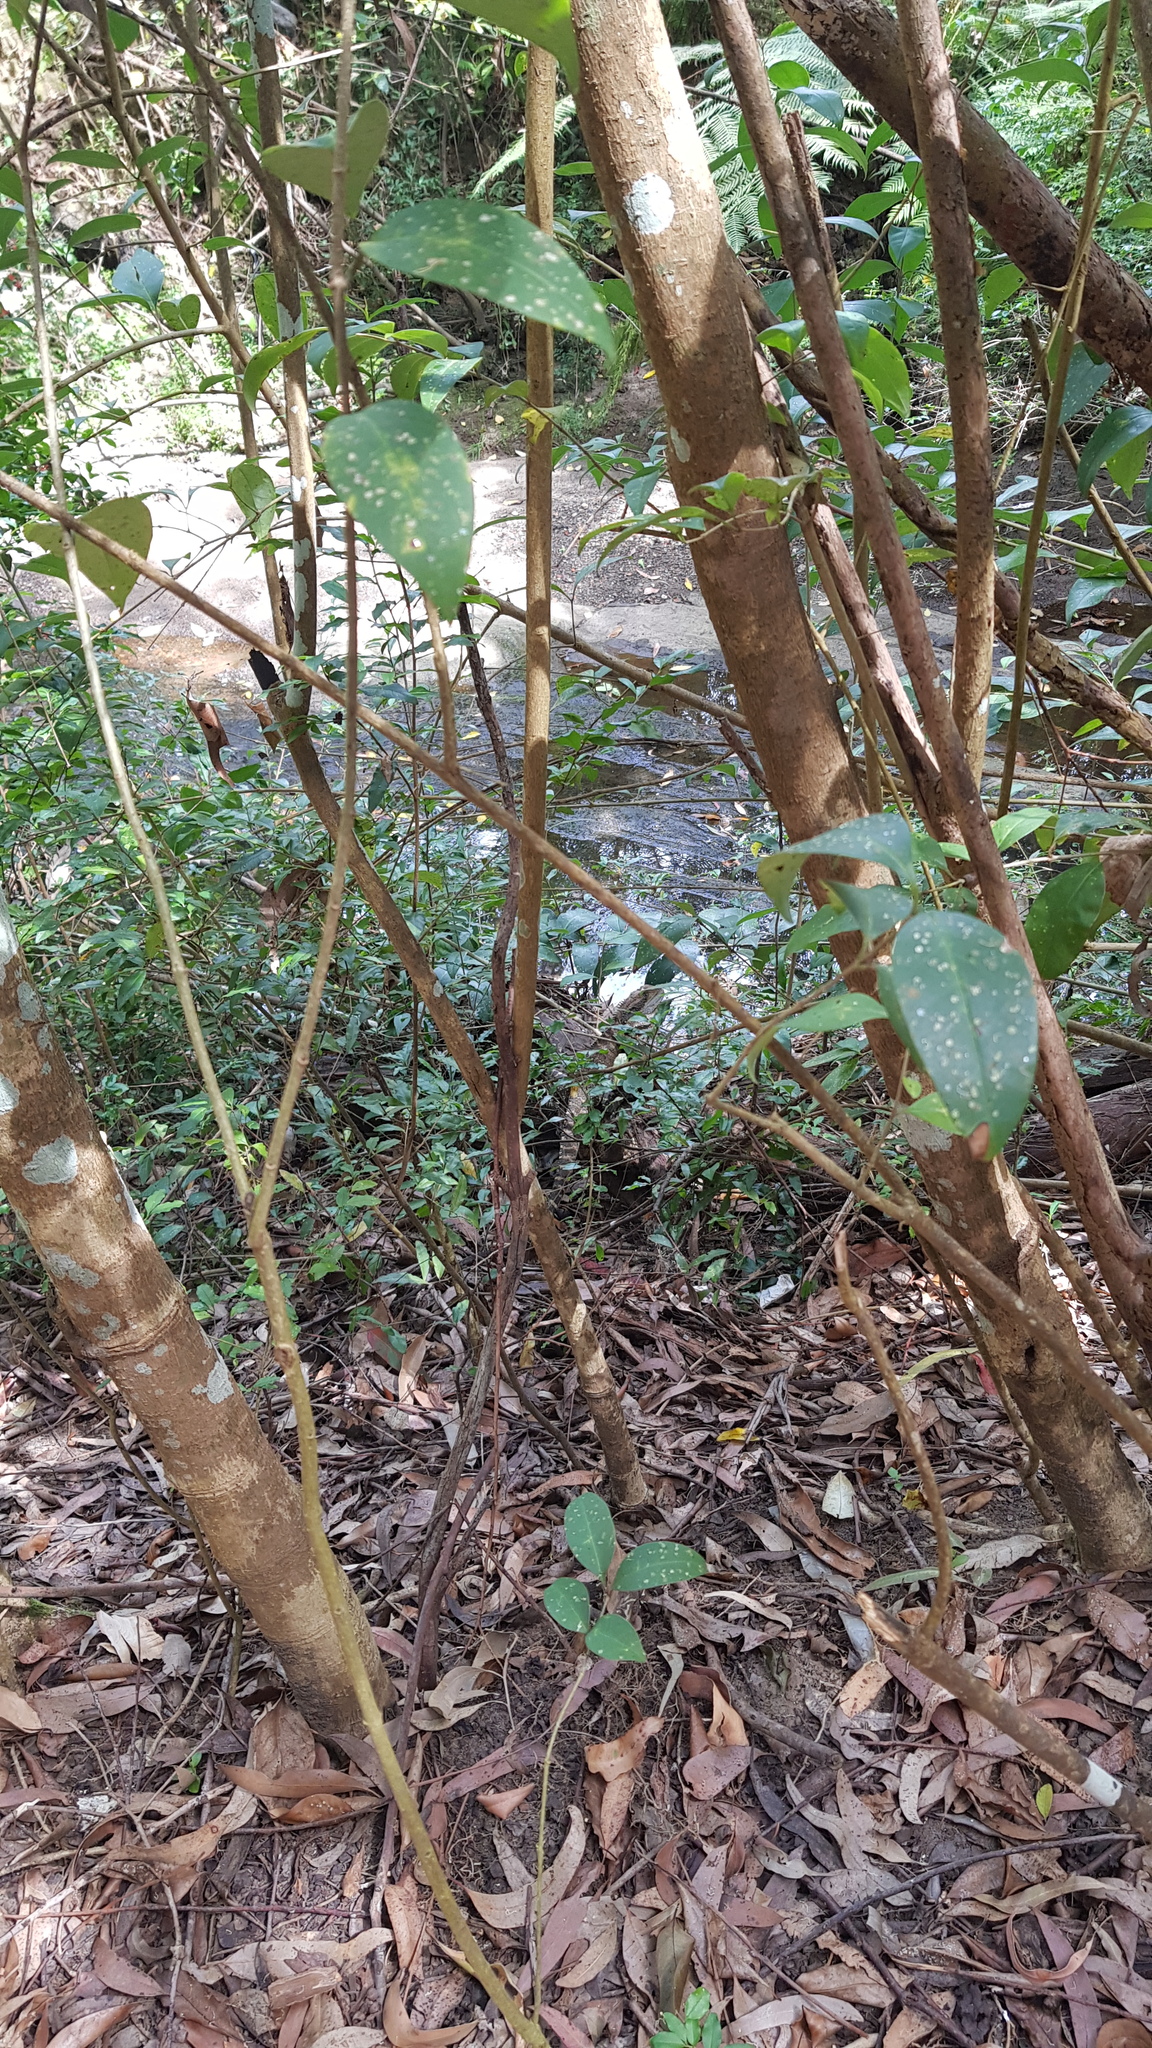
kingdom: Animalia
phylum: Chordata
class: Squamata
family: Agamidae
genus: Intellagama
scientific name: Intellagama lesueurii
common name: Eastern water dragon
